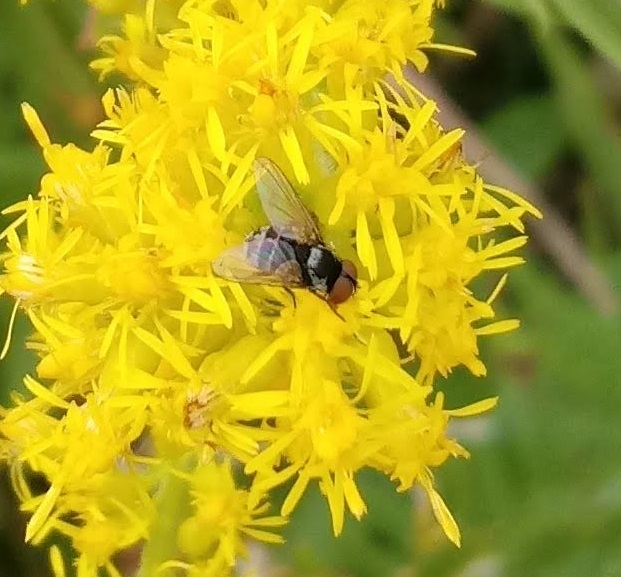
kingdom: Animalia
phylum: Arthropoda
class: Insecta
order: Diptera
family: Tachinidae
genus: Strongygaster
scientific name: Strongygaster triangulifera
